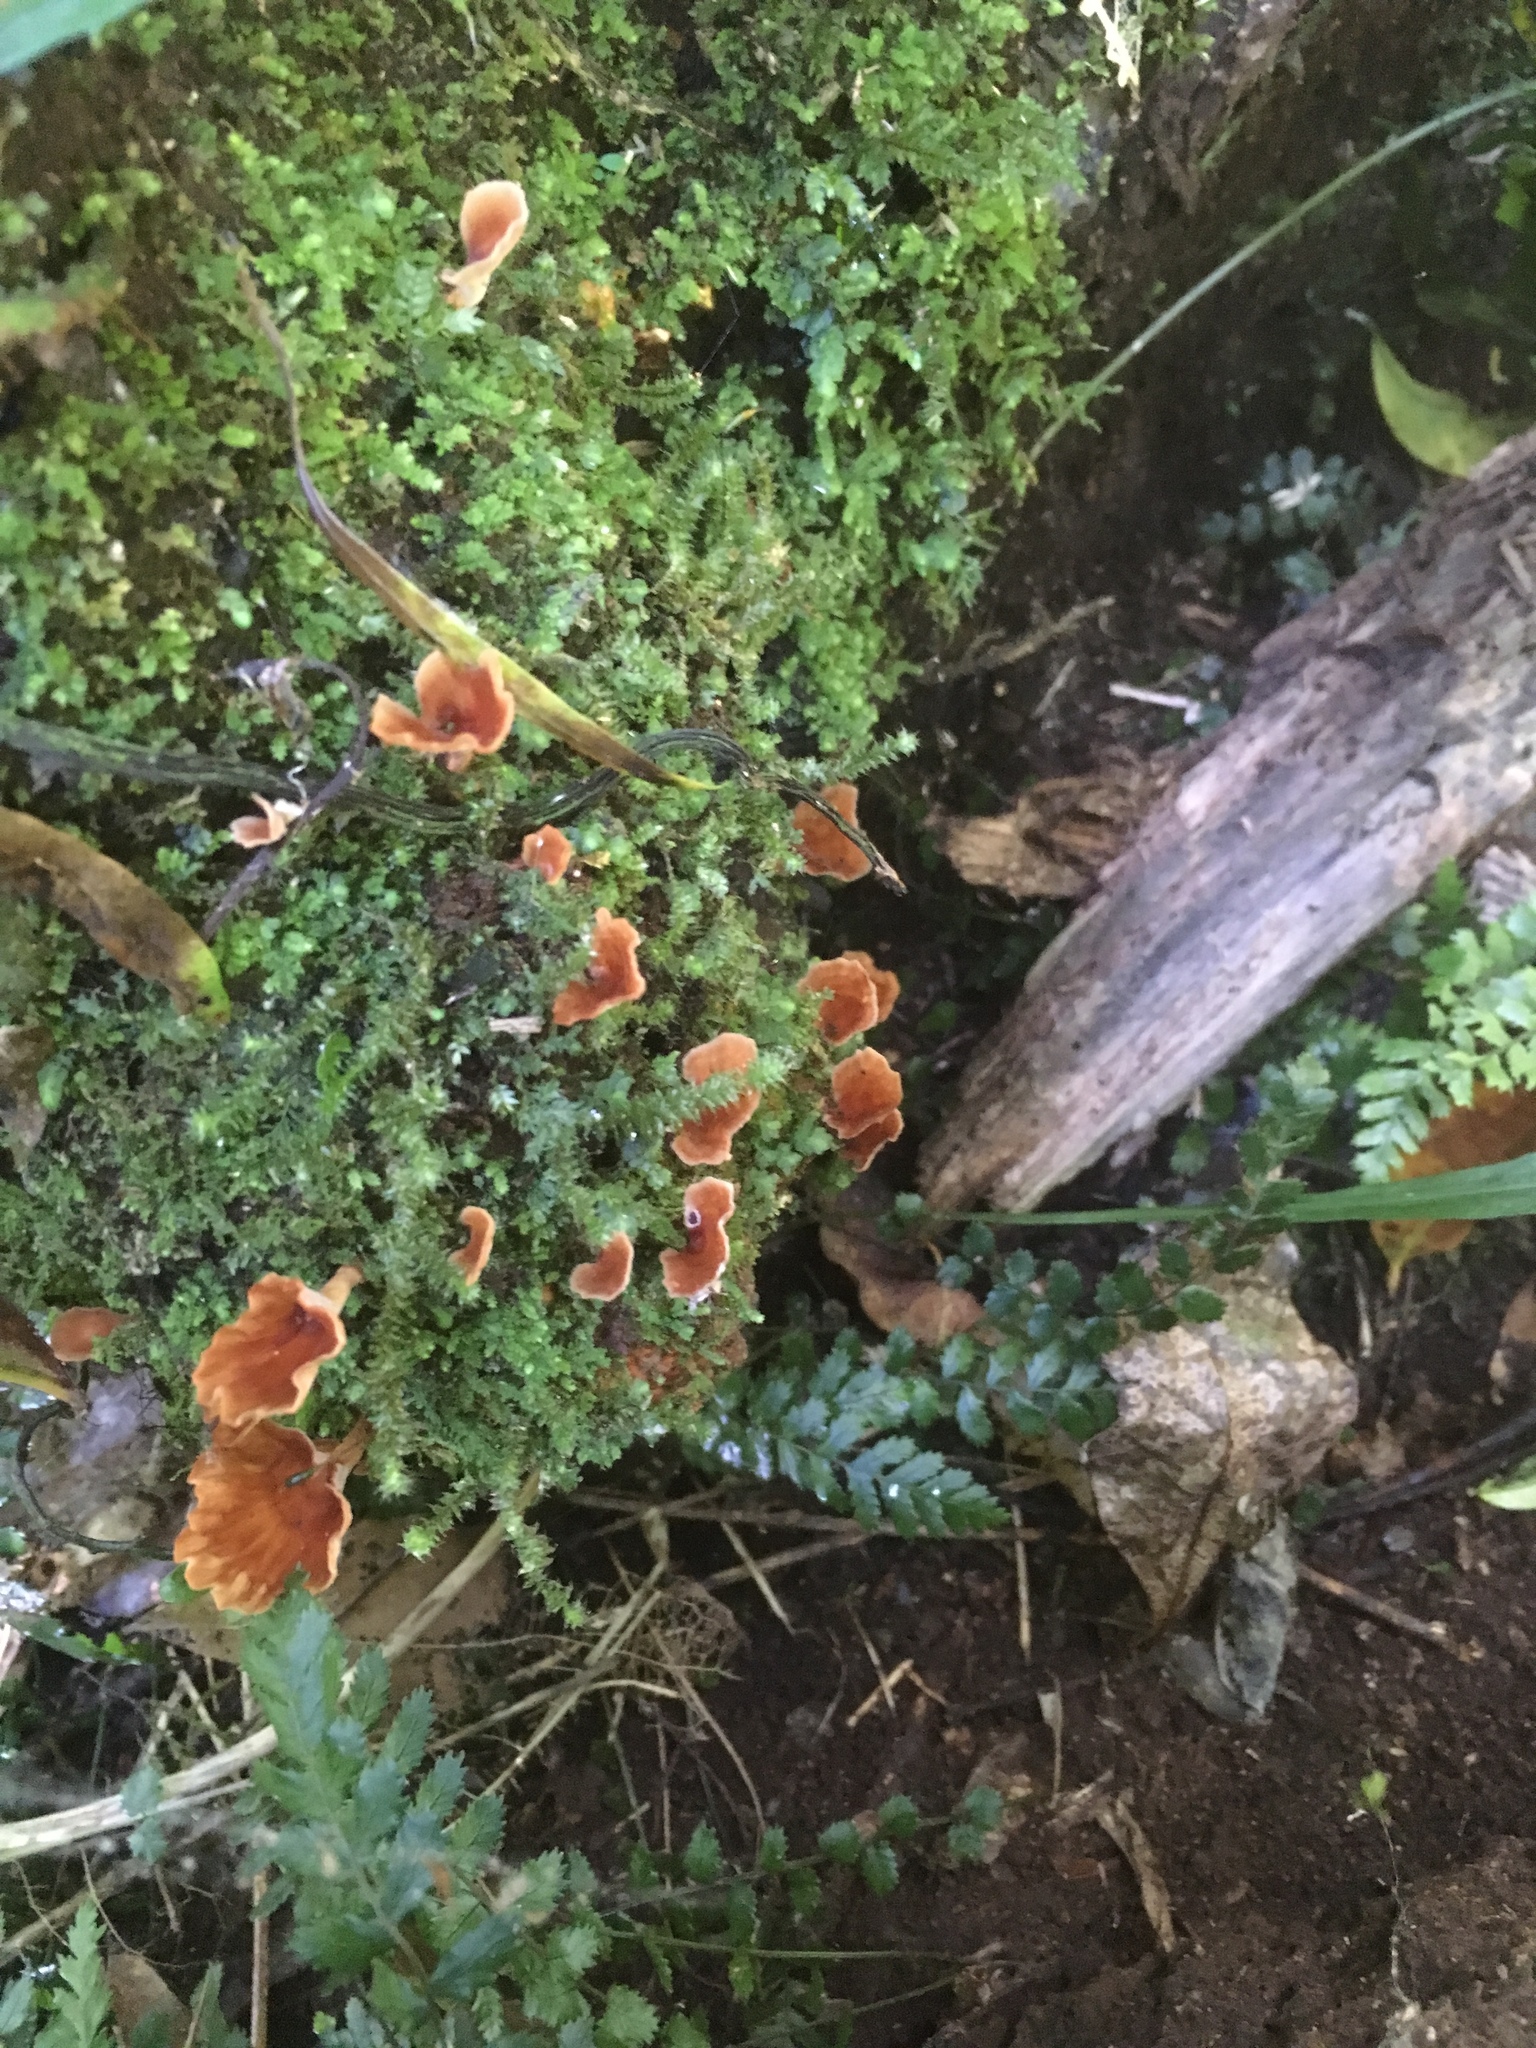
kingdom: Fungi
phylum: Basidiomycota
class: Agaricomycetes
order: Polyporales
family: Podoscyphaceae
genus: Podoscypha
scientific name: Podoscypha petalodes
